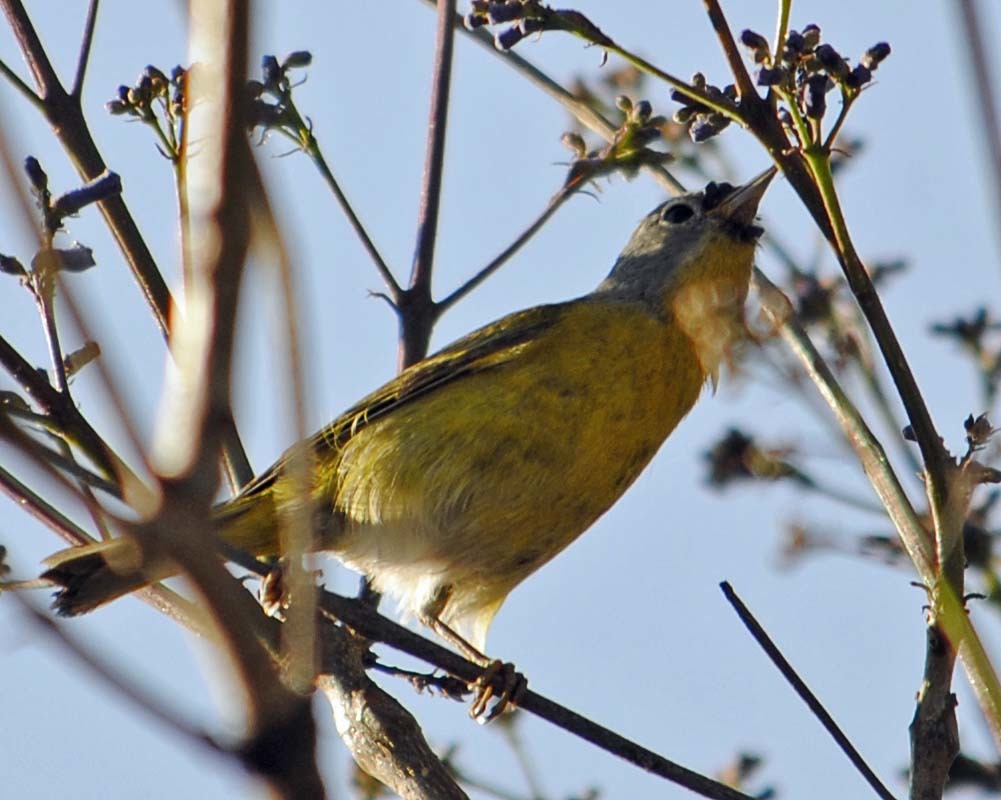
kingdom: Animalia
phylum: Chordata
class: Aves
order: Passeriformes
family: Parulidae
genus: Leiothlypis
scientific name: Leiothlypis ruficapilla
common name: Nashville warbler
